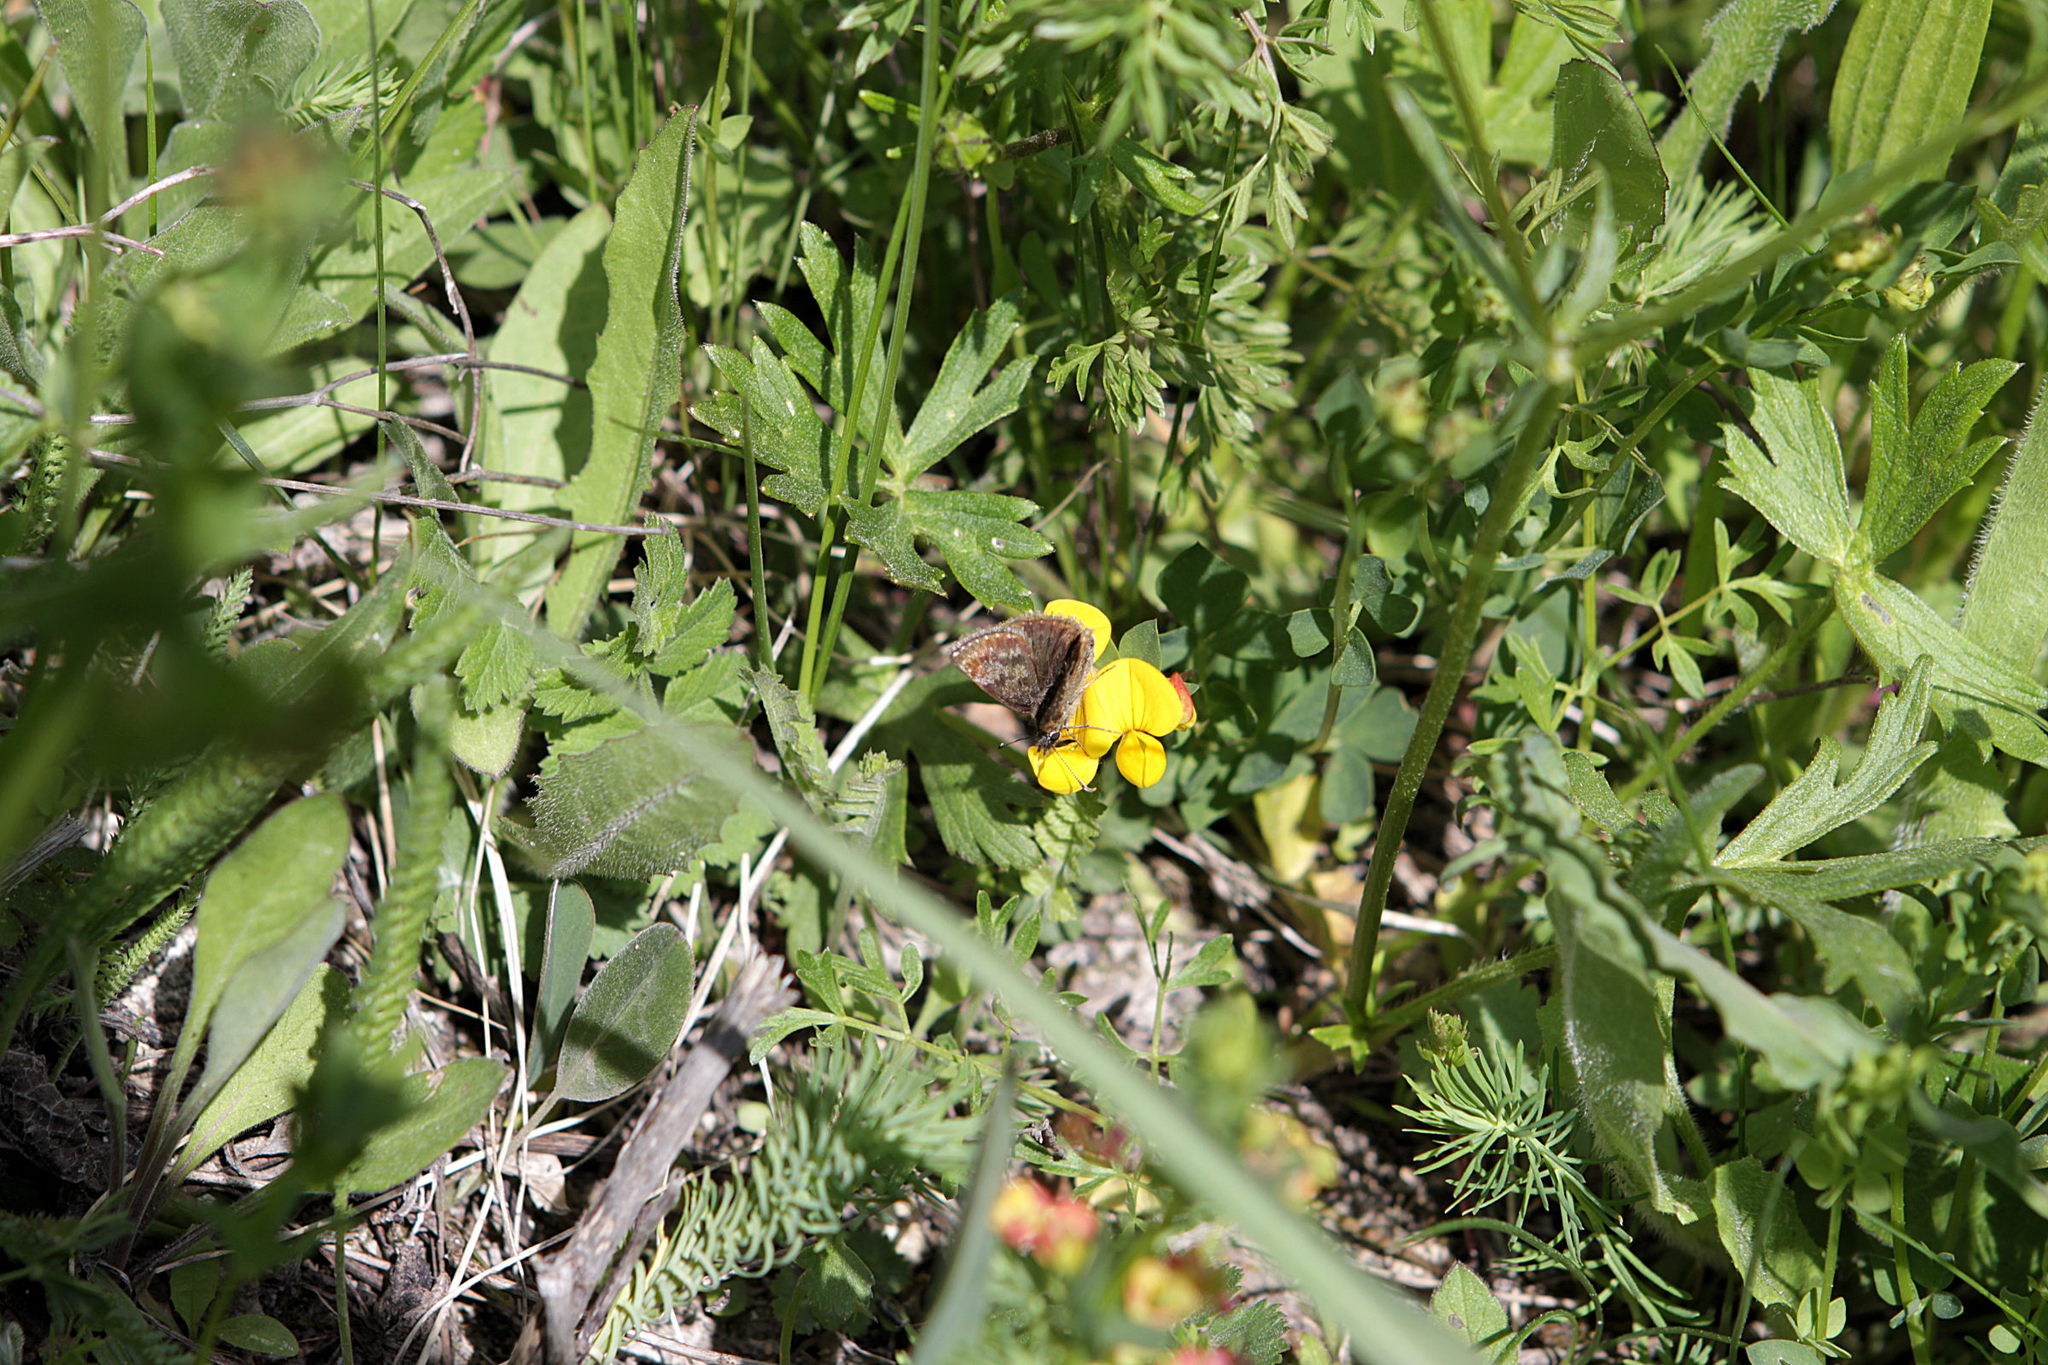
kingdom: Animalia
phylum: Arthropoda
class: Insecta
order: Lepidoptera
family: Hesperiidae
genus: Erynnis
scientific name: Erynnis tages
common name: Dingy skipper
